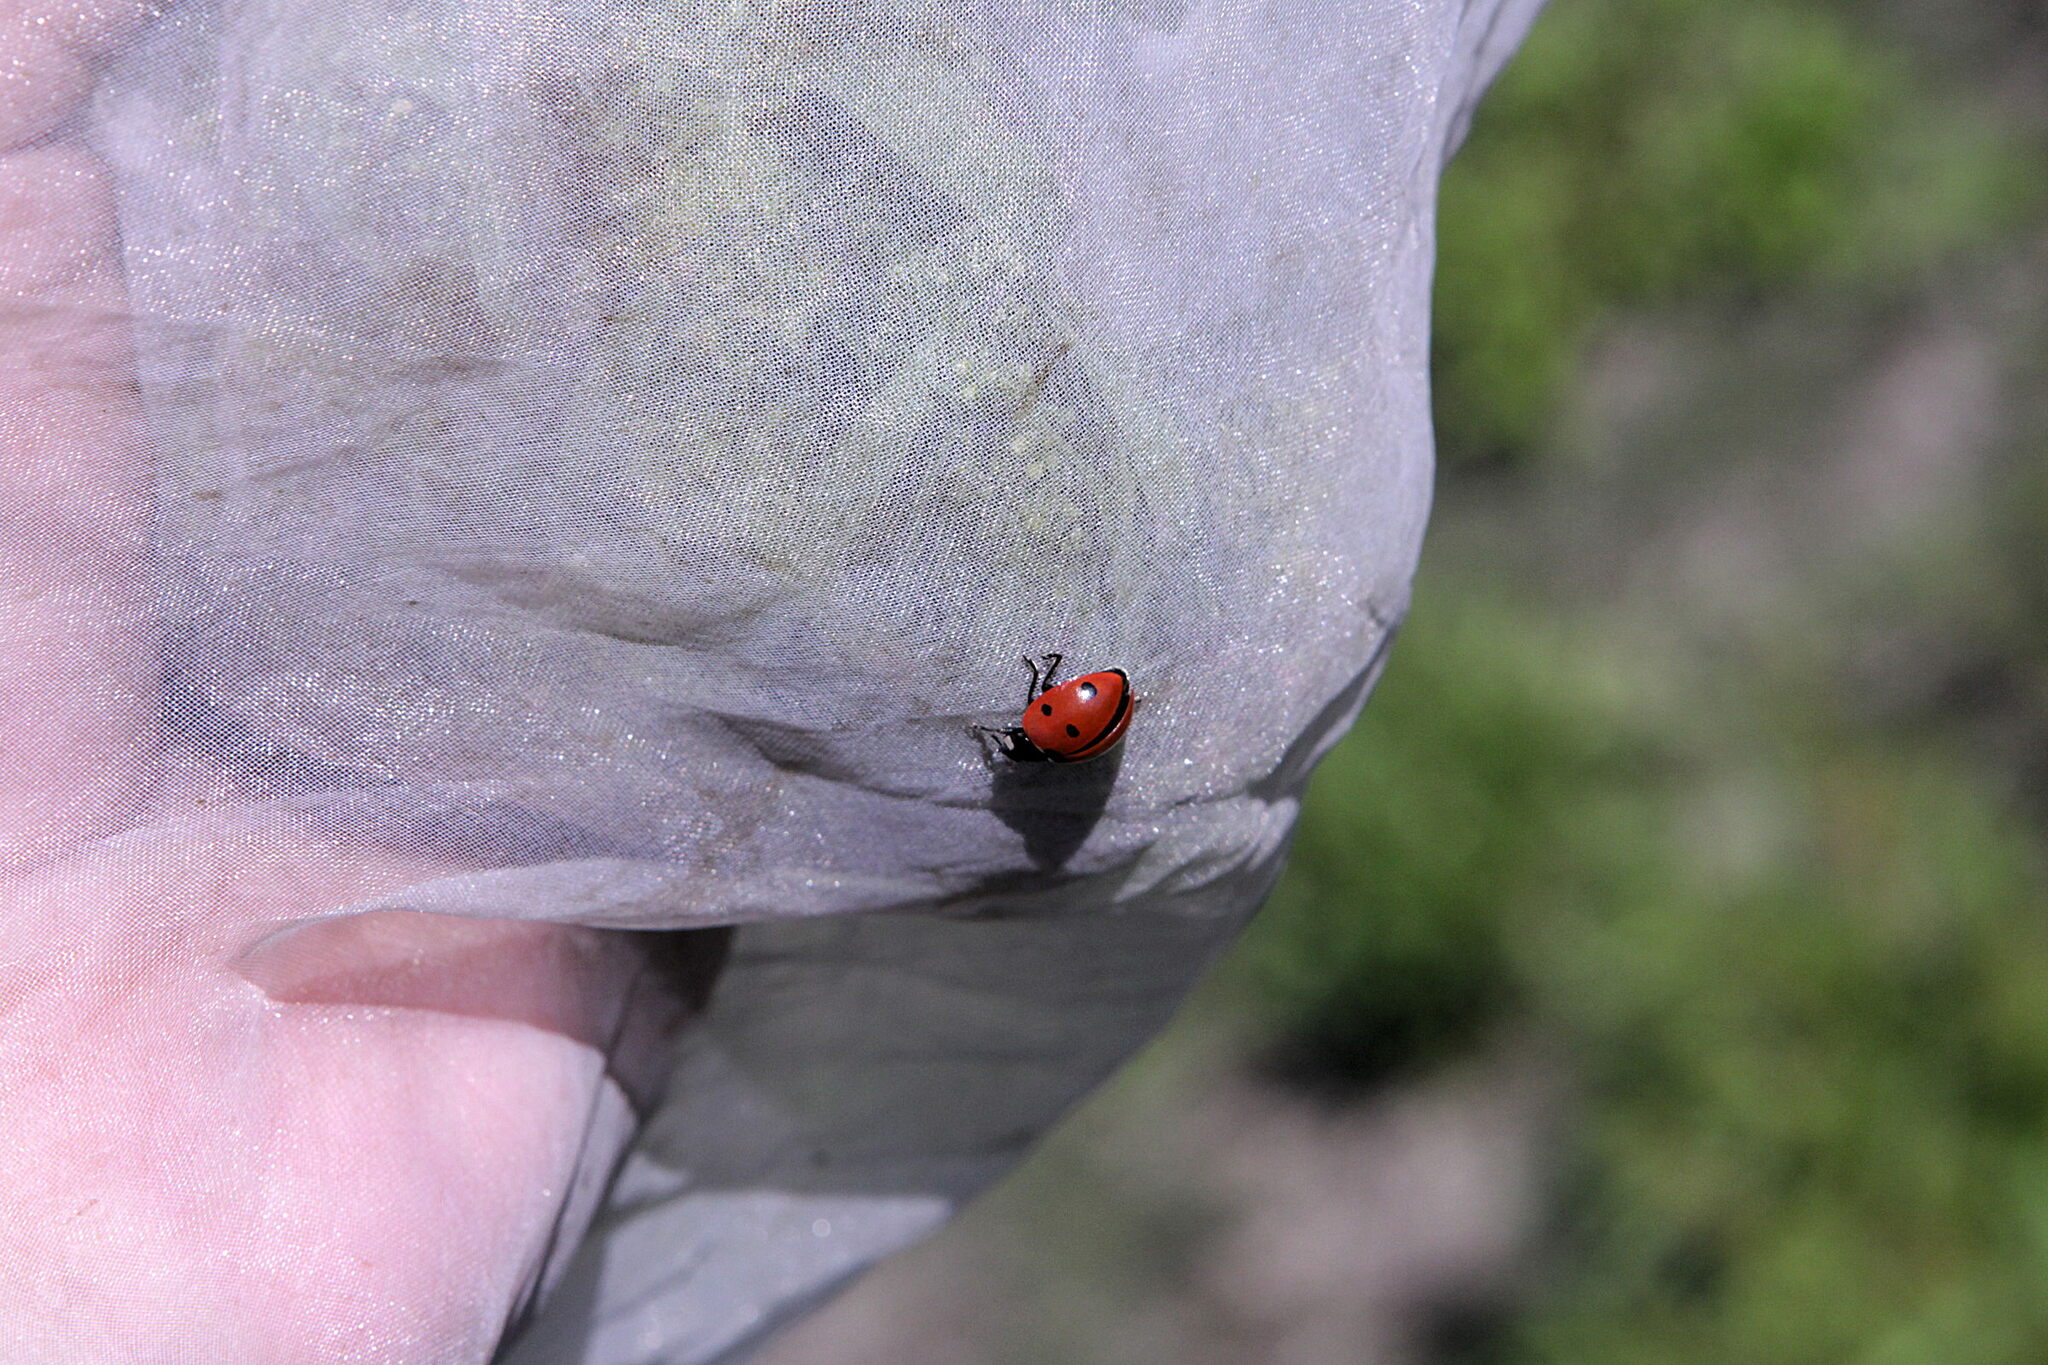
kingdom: Animalia
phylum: Arthropoda
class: Insecta
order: Coleoptera
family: Coccinellidae
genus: Coccinella
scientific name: Coccinella septempunctata
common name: Sevenspotted lady beetle
